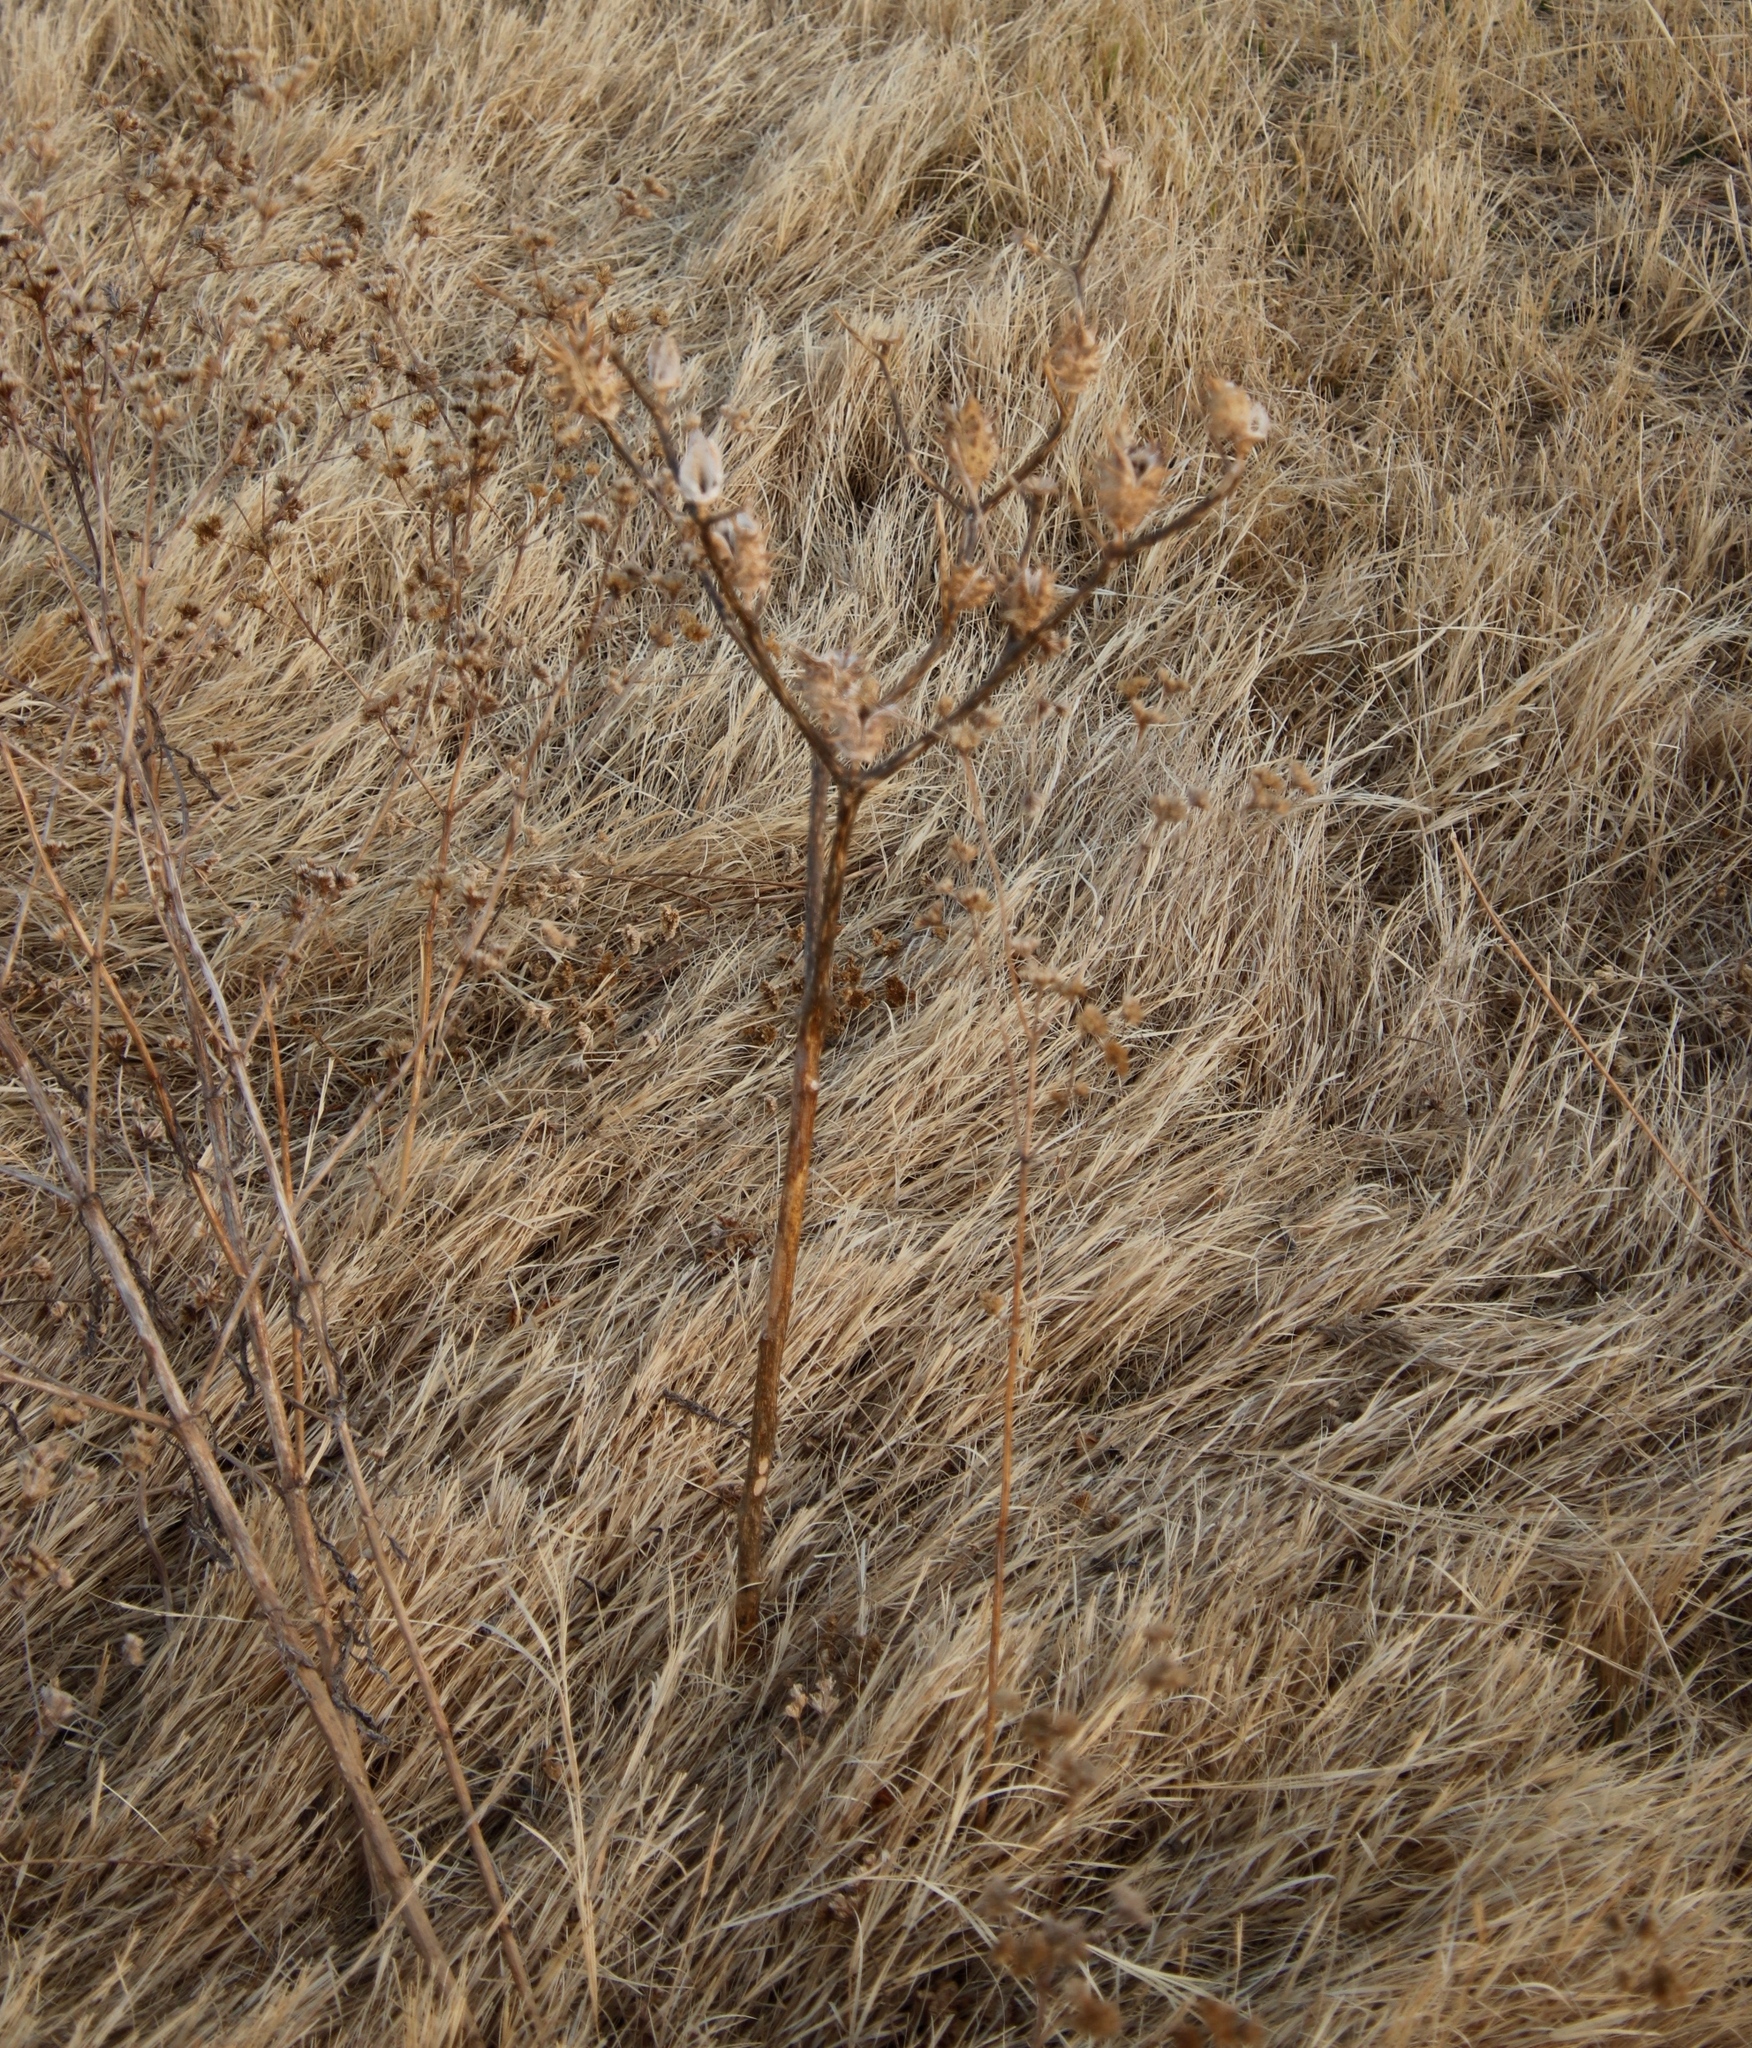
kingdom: Plantae
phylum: Tracheophyta
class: Magnoliopsida
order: Solanales
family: Solanaceae
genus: Datura
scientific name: Datura ferox
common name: Angel's-trumpets
